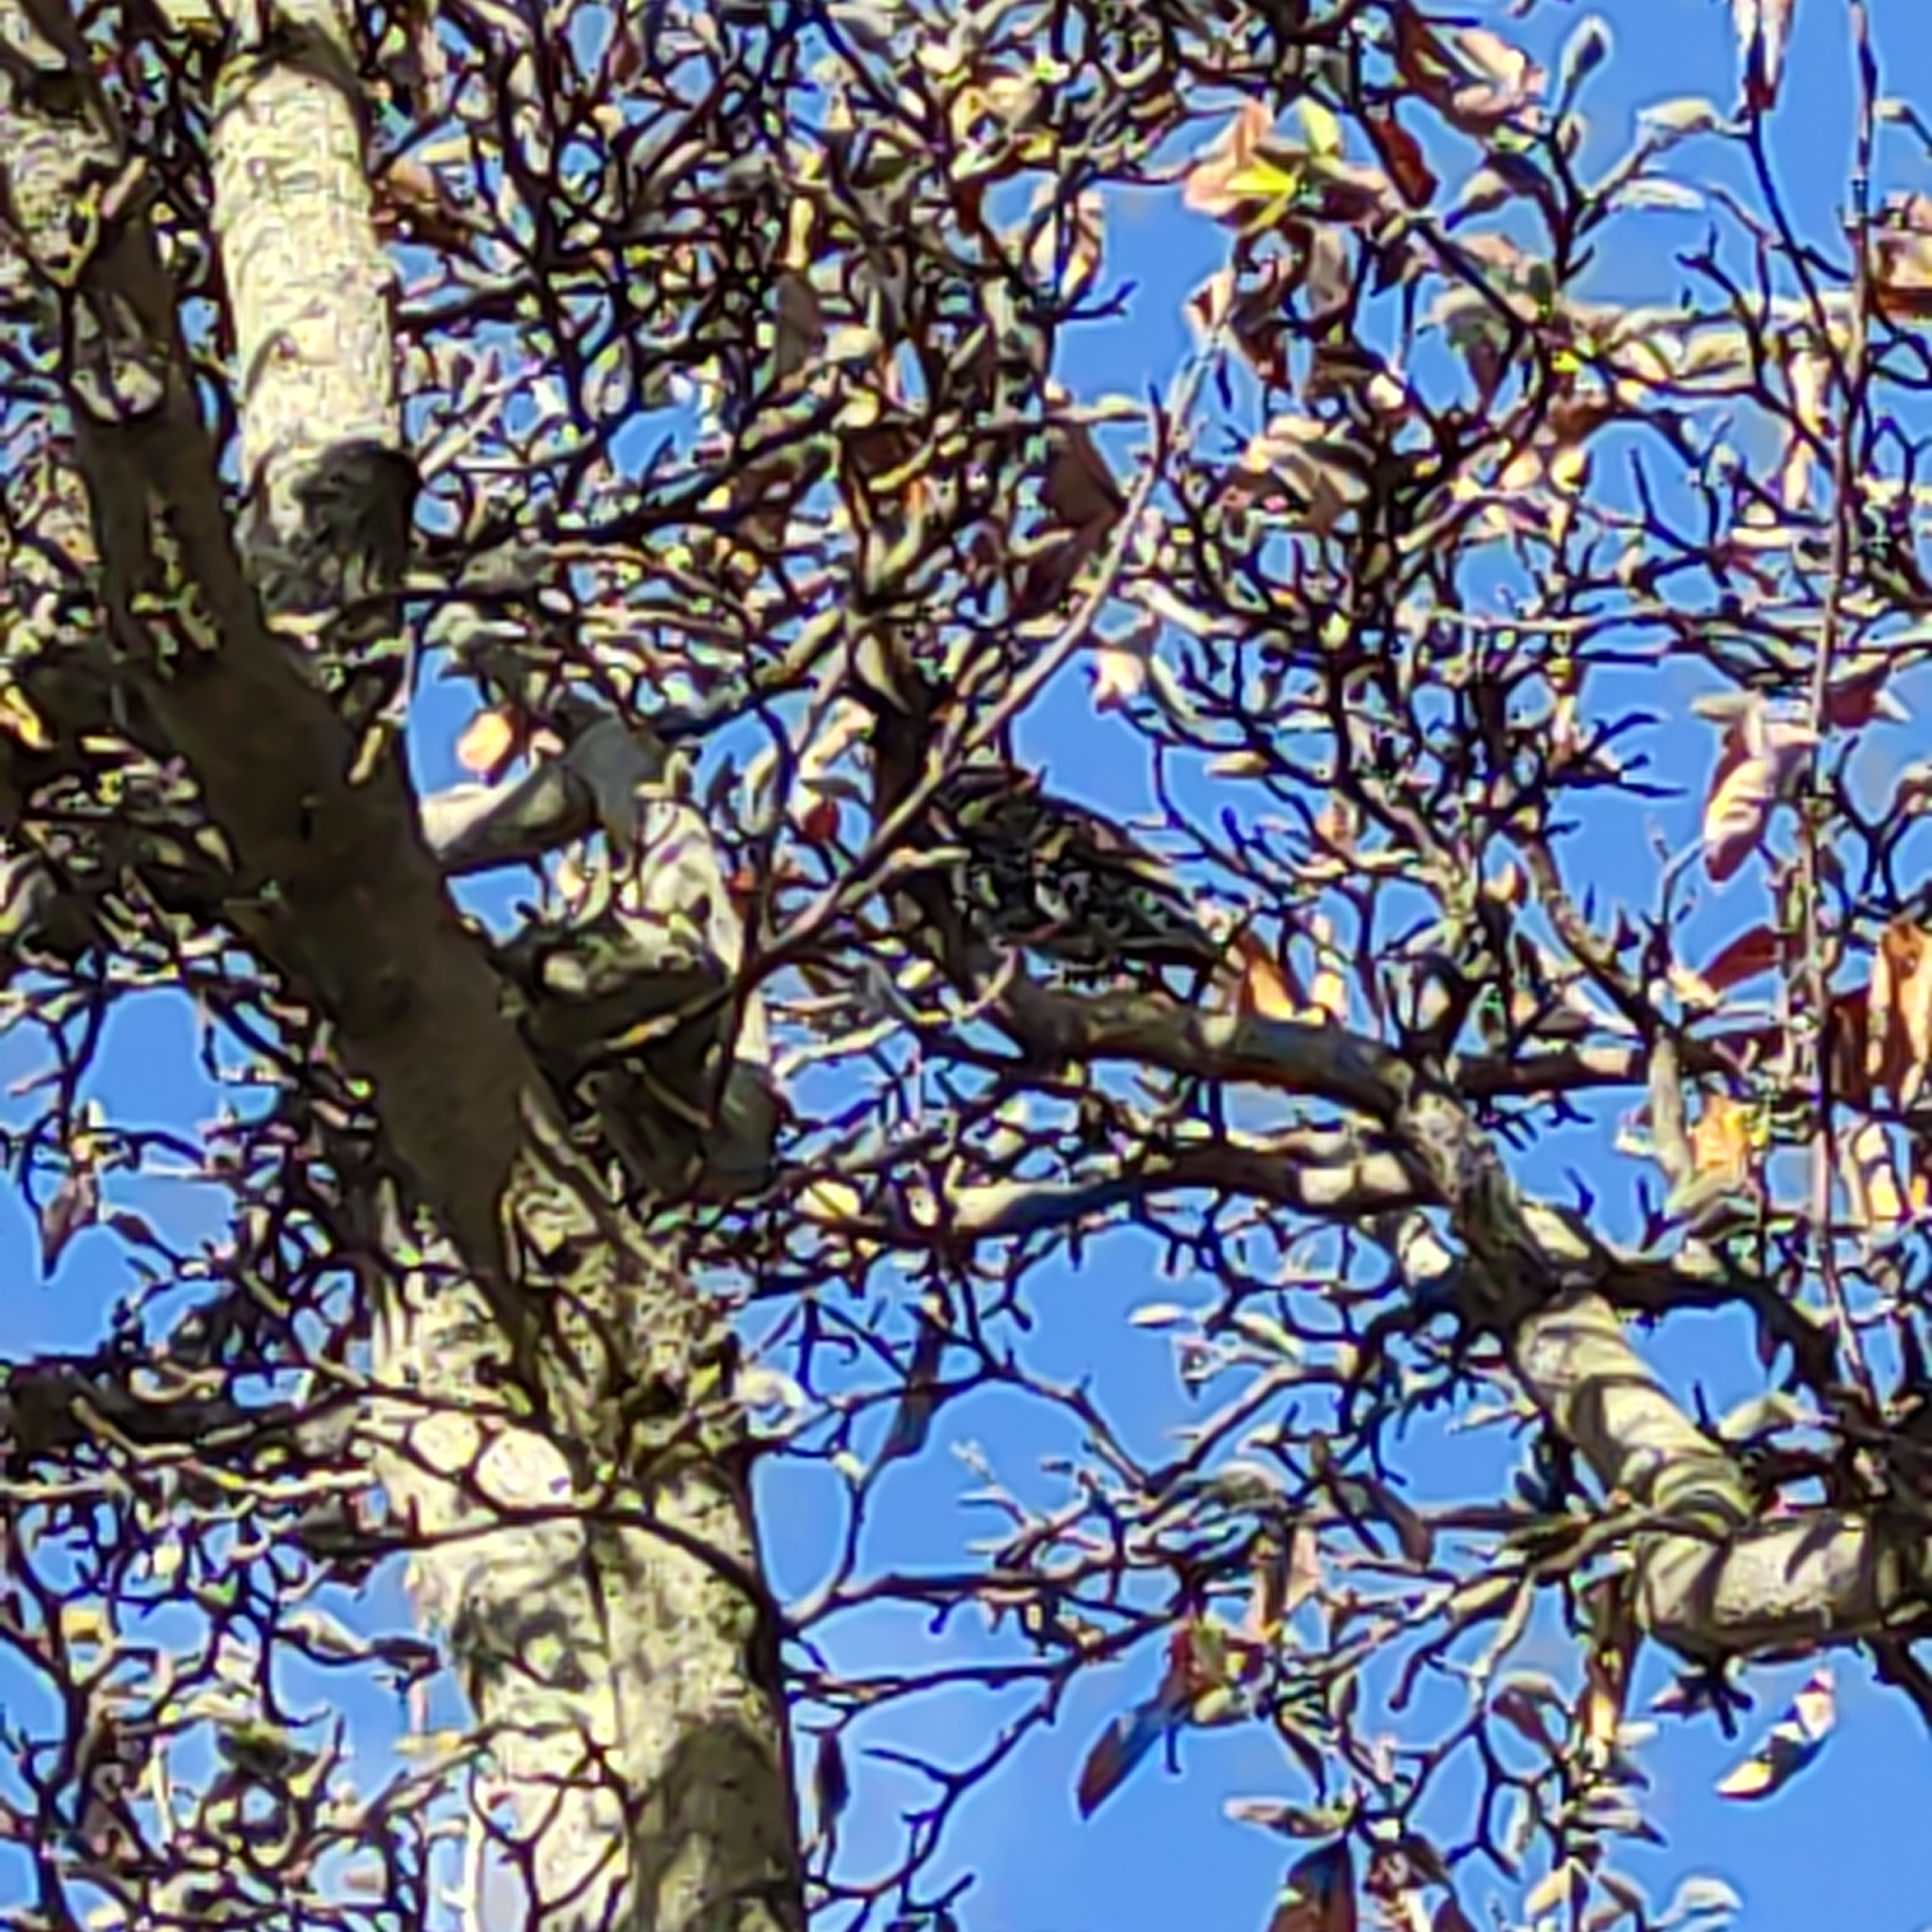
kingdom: Animalia
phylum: Chordata
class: Aves
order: Passeriformes
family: Sturnidae
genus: Sturnus
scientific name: Sturnus vulgaris
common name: Common starling
